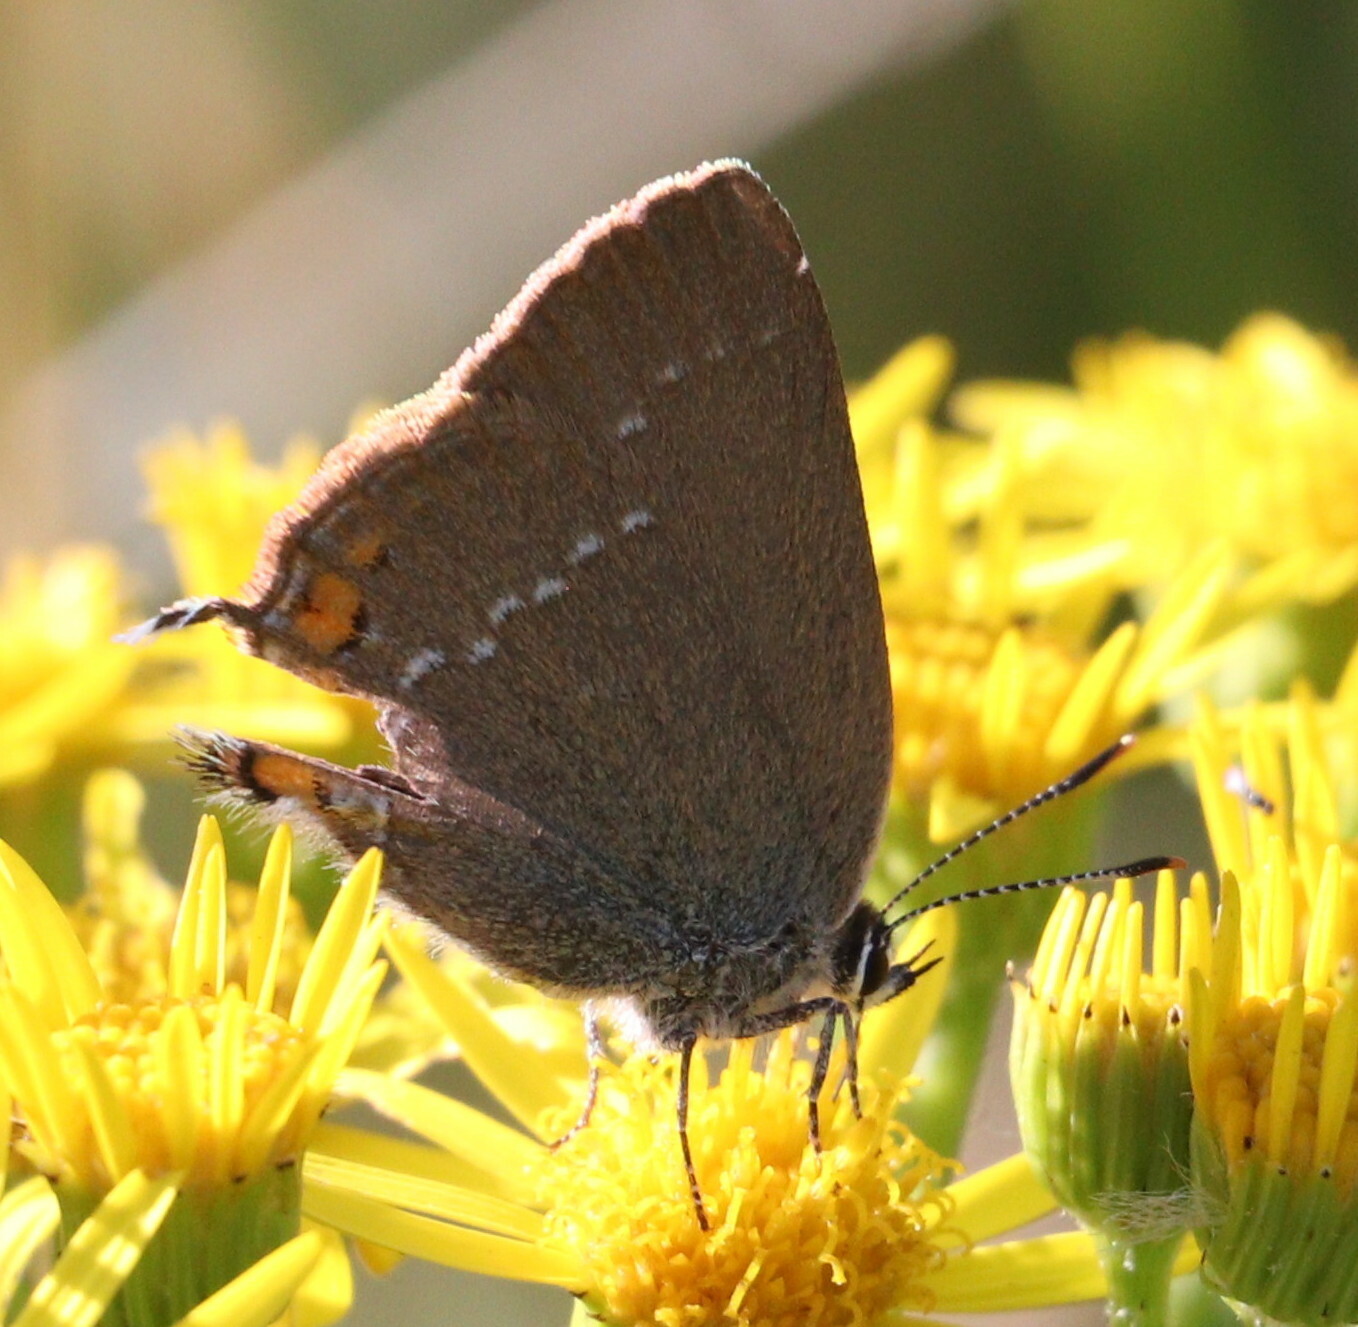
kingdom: Animalia
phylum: Arthropoda
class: Insecta
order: Lepidoptera
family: Lycaenidae
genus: Strymon
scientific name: Strymon acaciae
